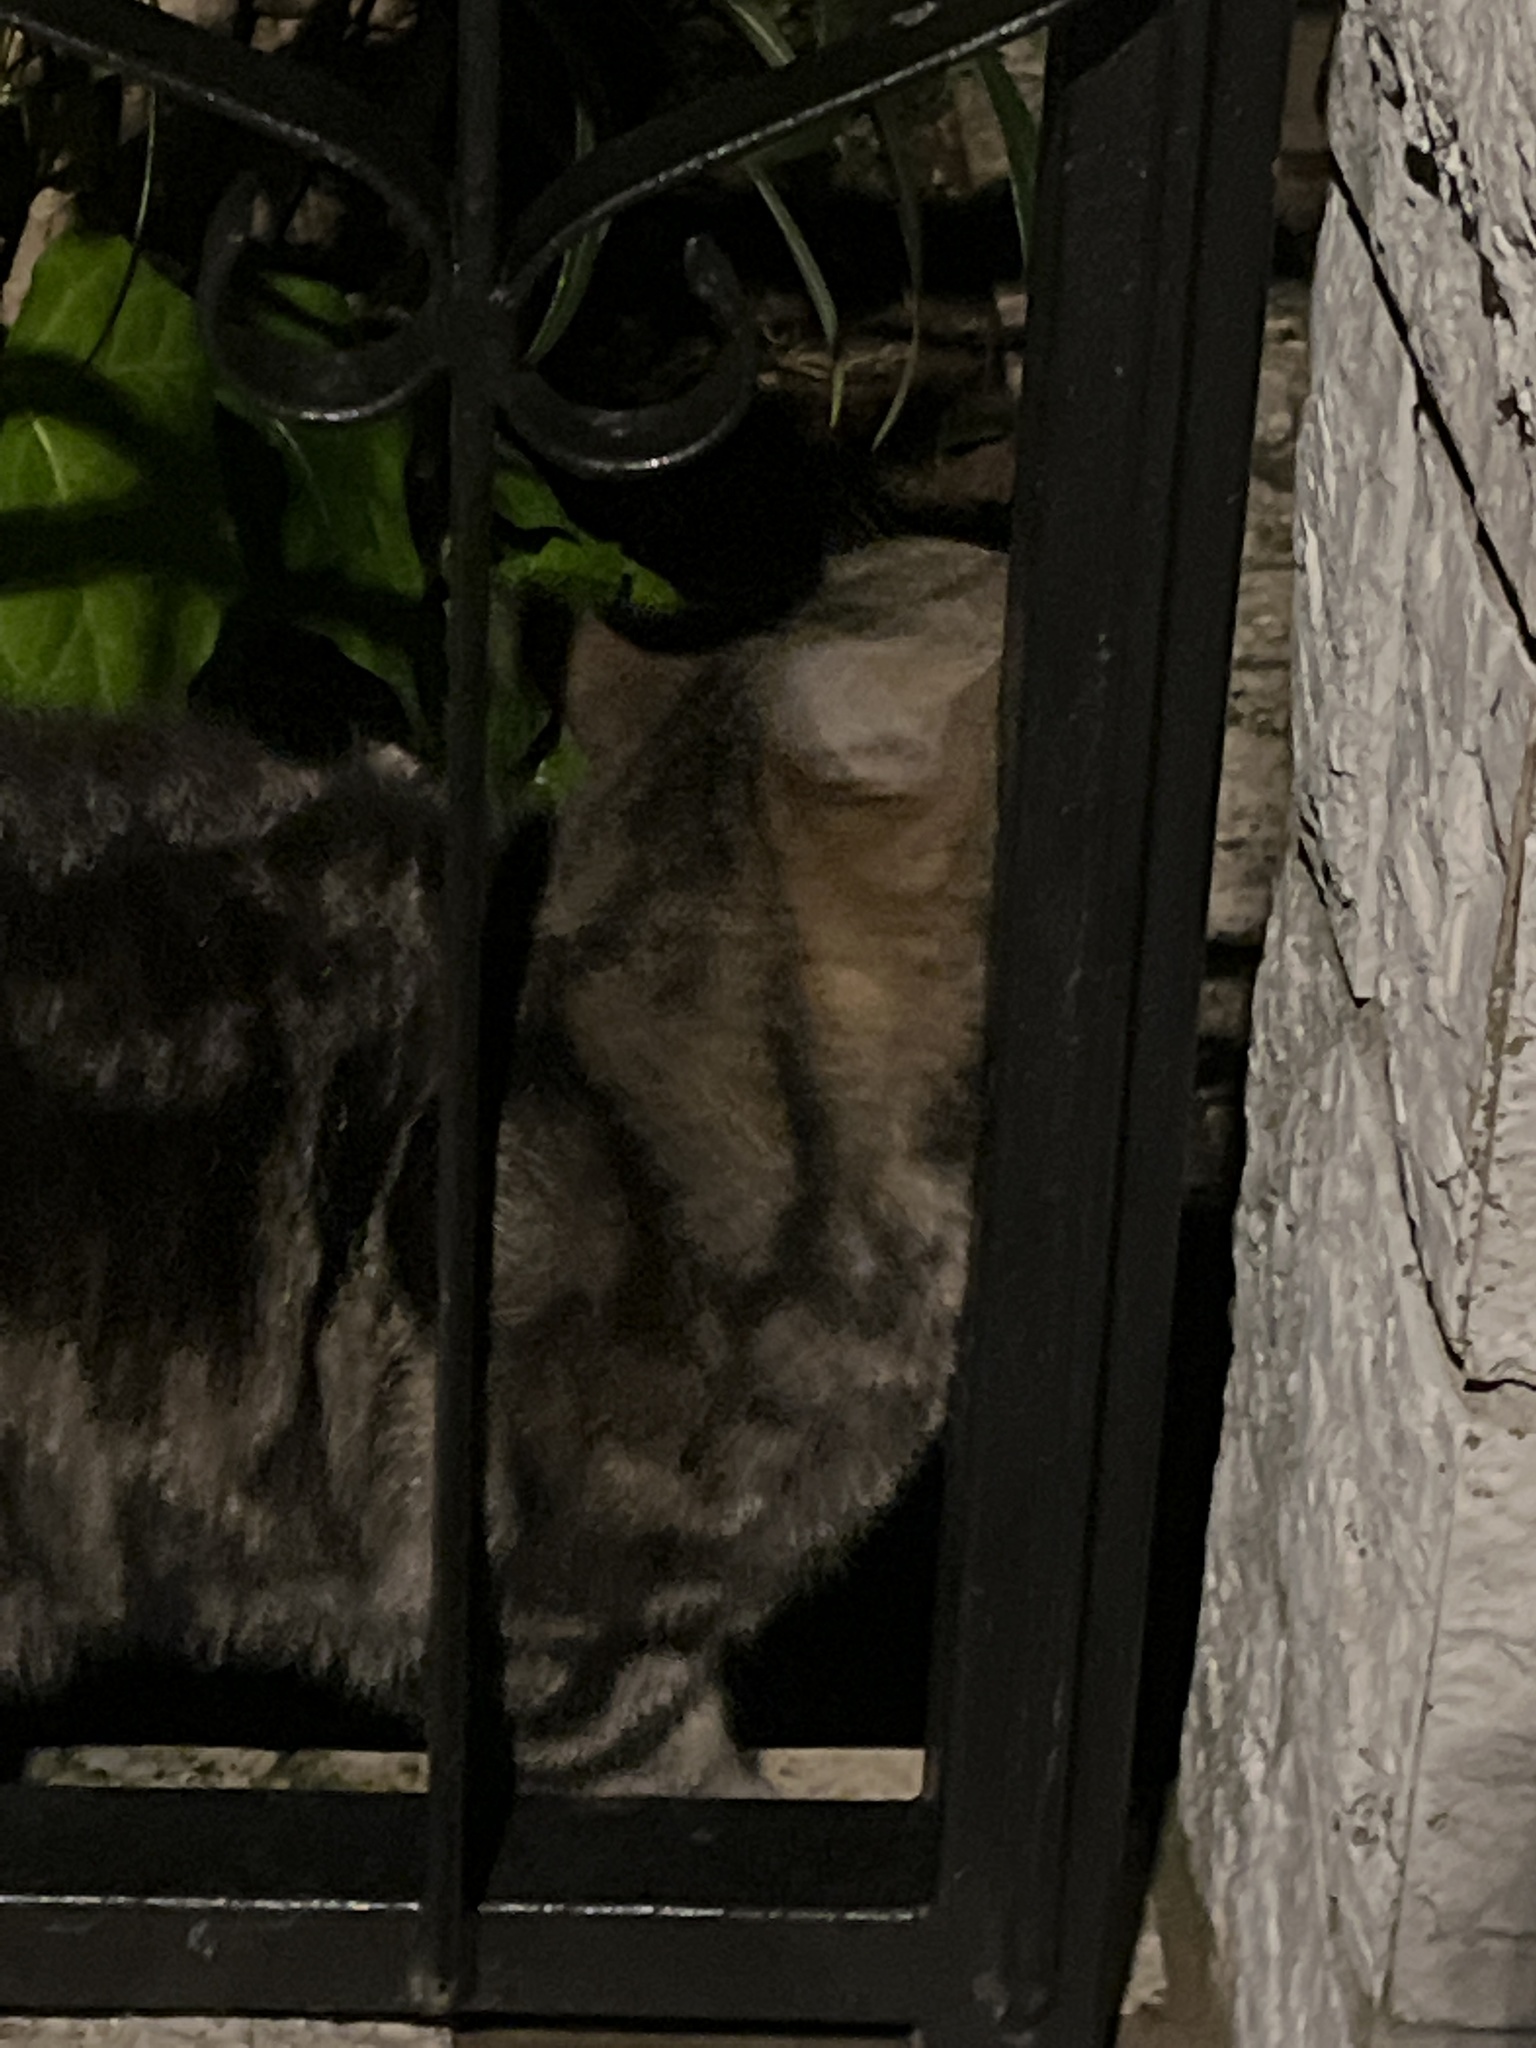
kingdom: Animalia
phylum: Chordata
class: Mammalia
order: Carnivora
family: Felidae
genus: Felis
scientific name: Felis catus
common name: Domestic cat
